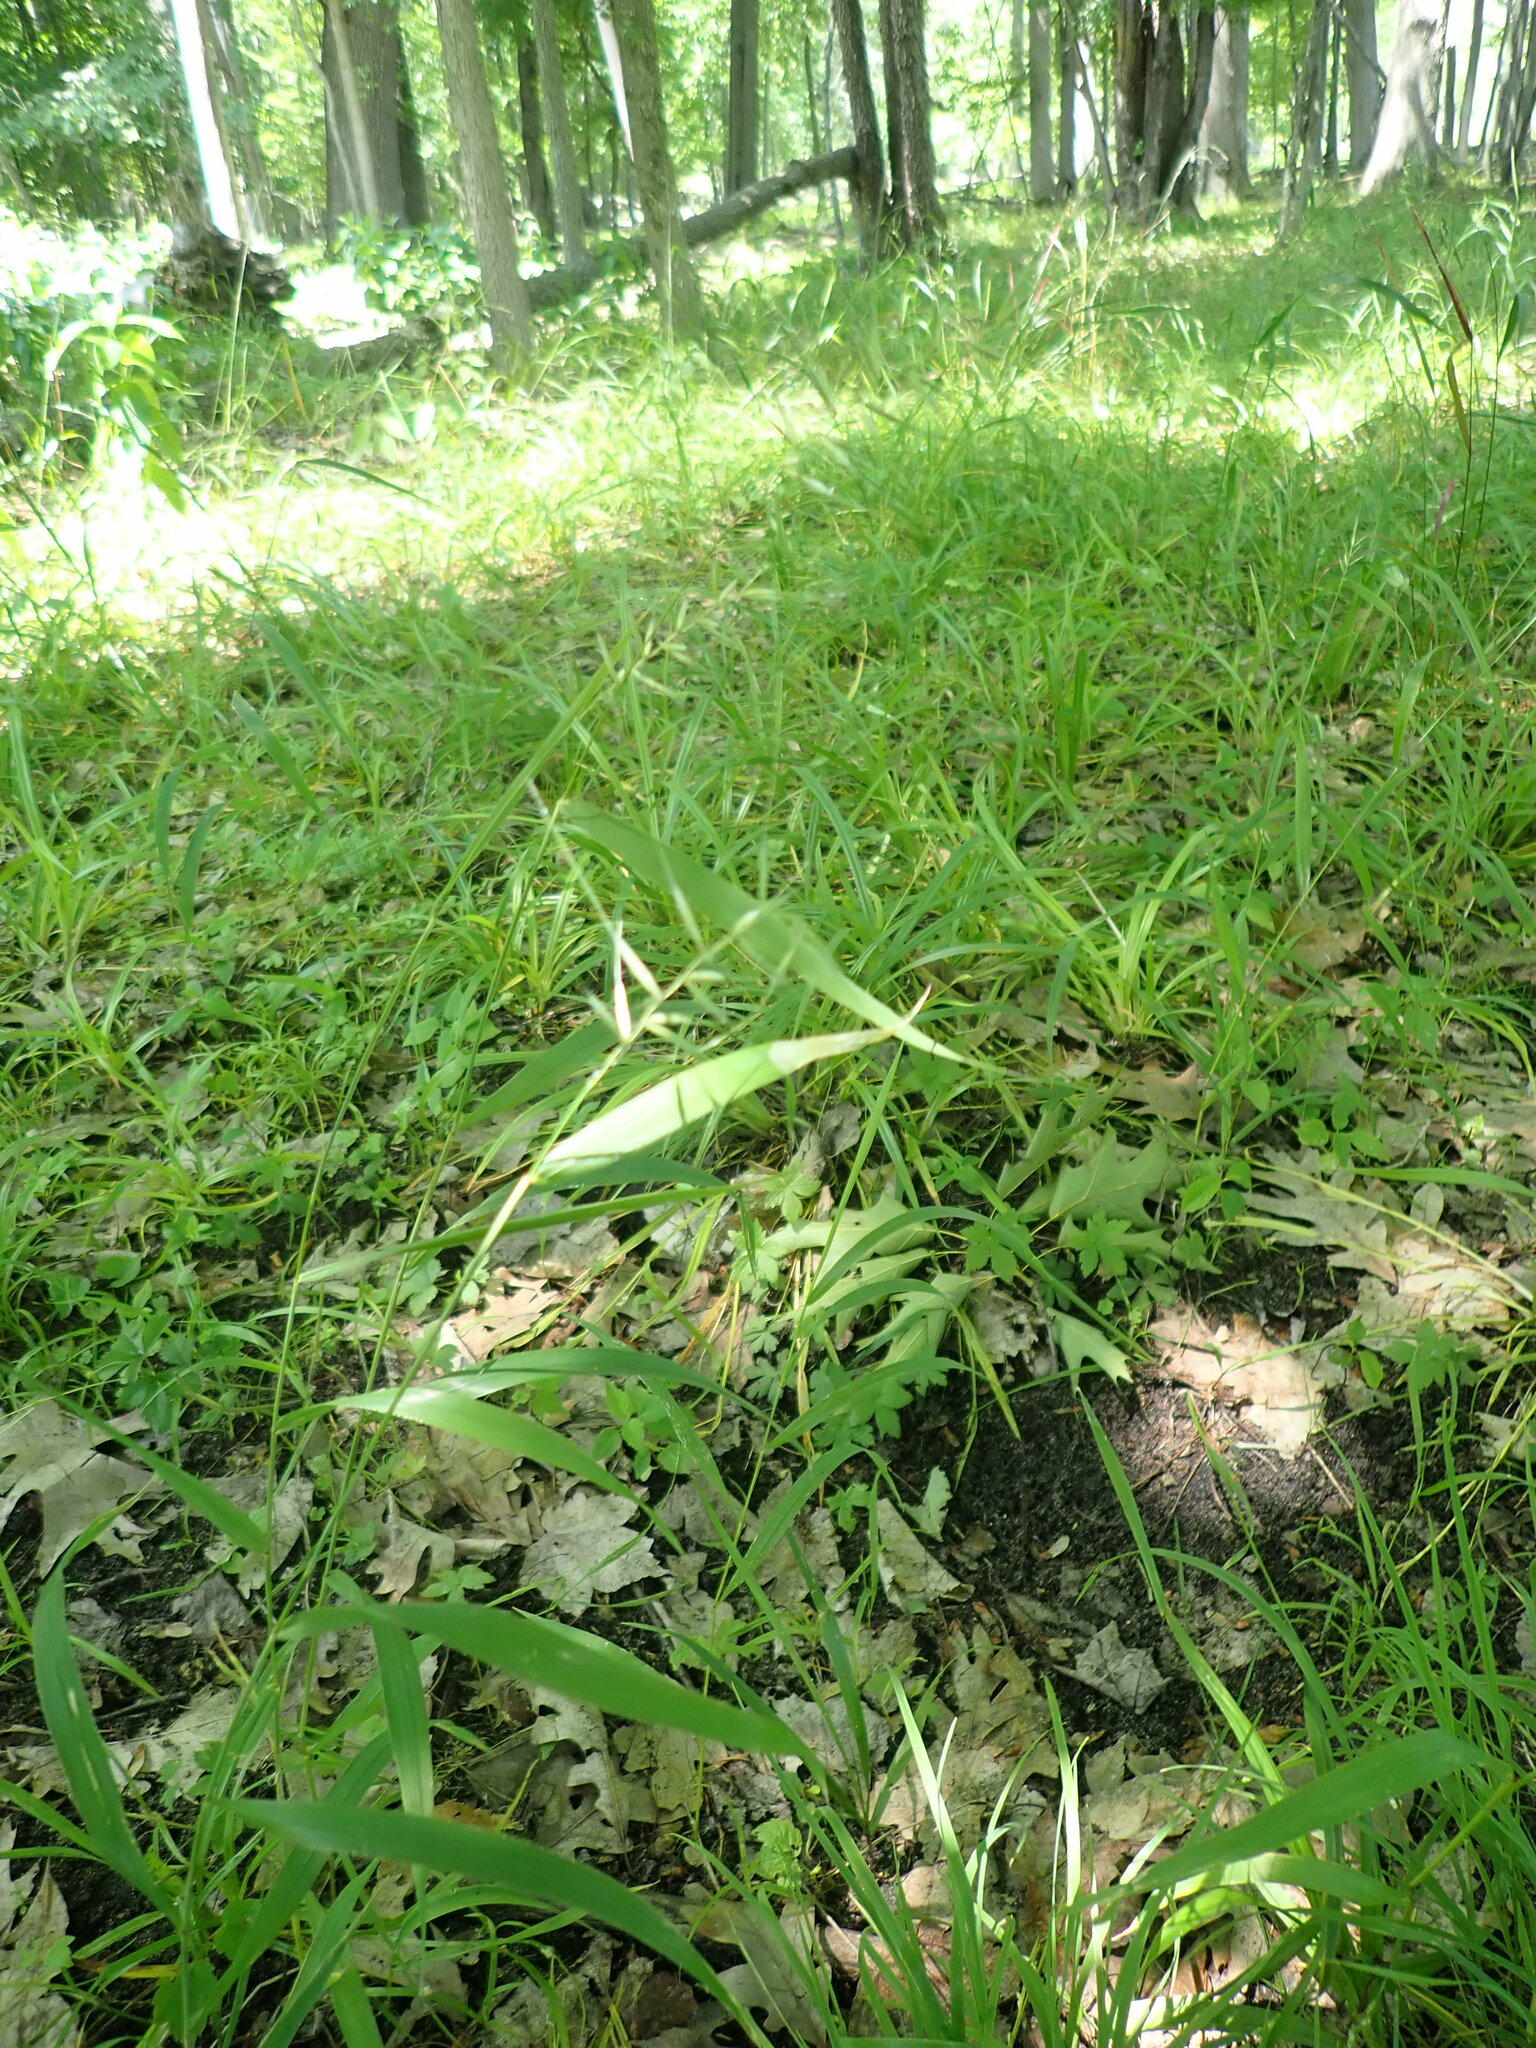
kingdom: Plantae
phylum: Tracheophyta
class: Liliopsida
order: Poales
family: Poaceae
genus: Elymus
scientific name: Elymus hystrix
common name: Bottlebrush grass
